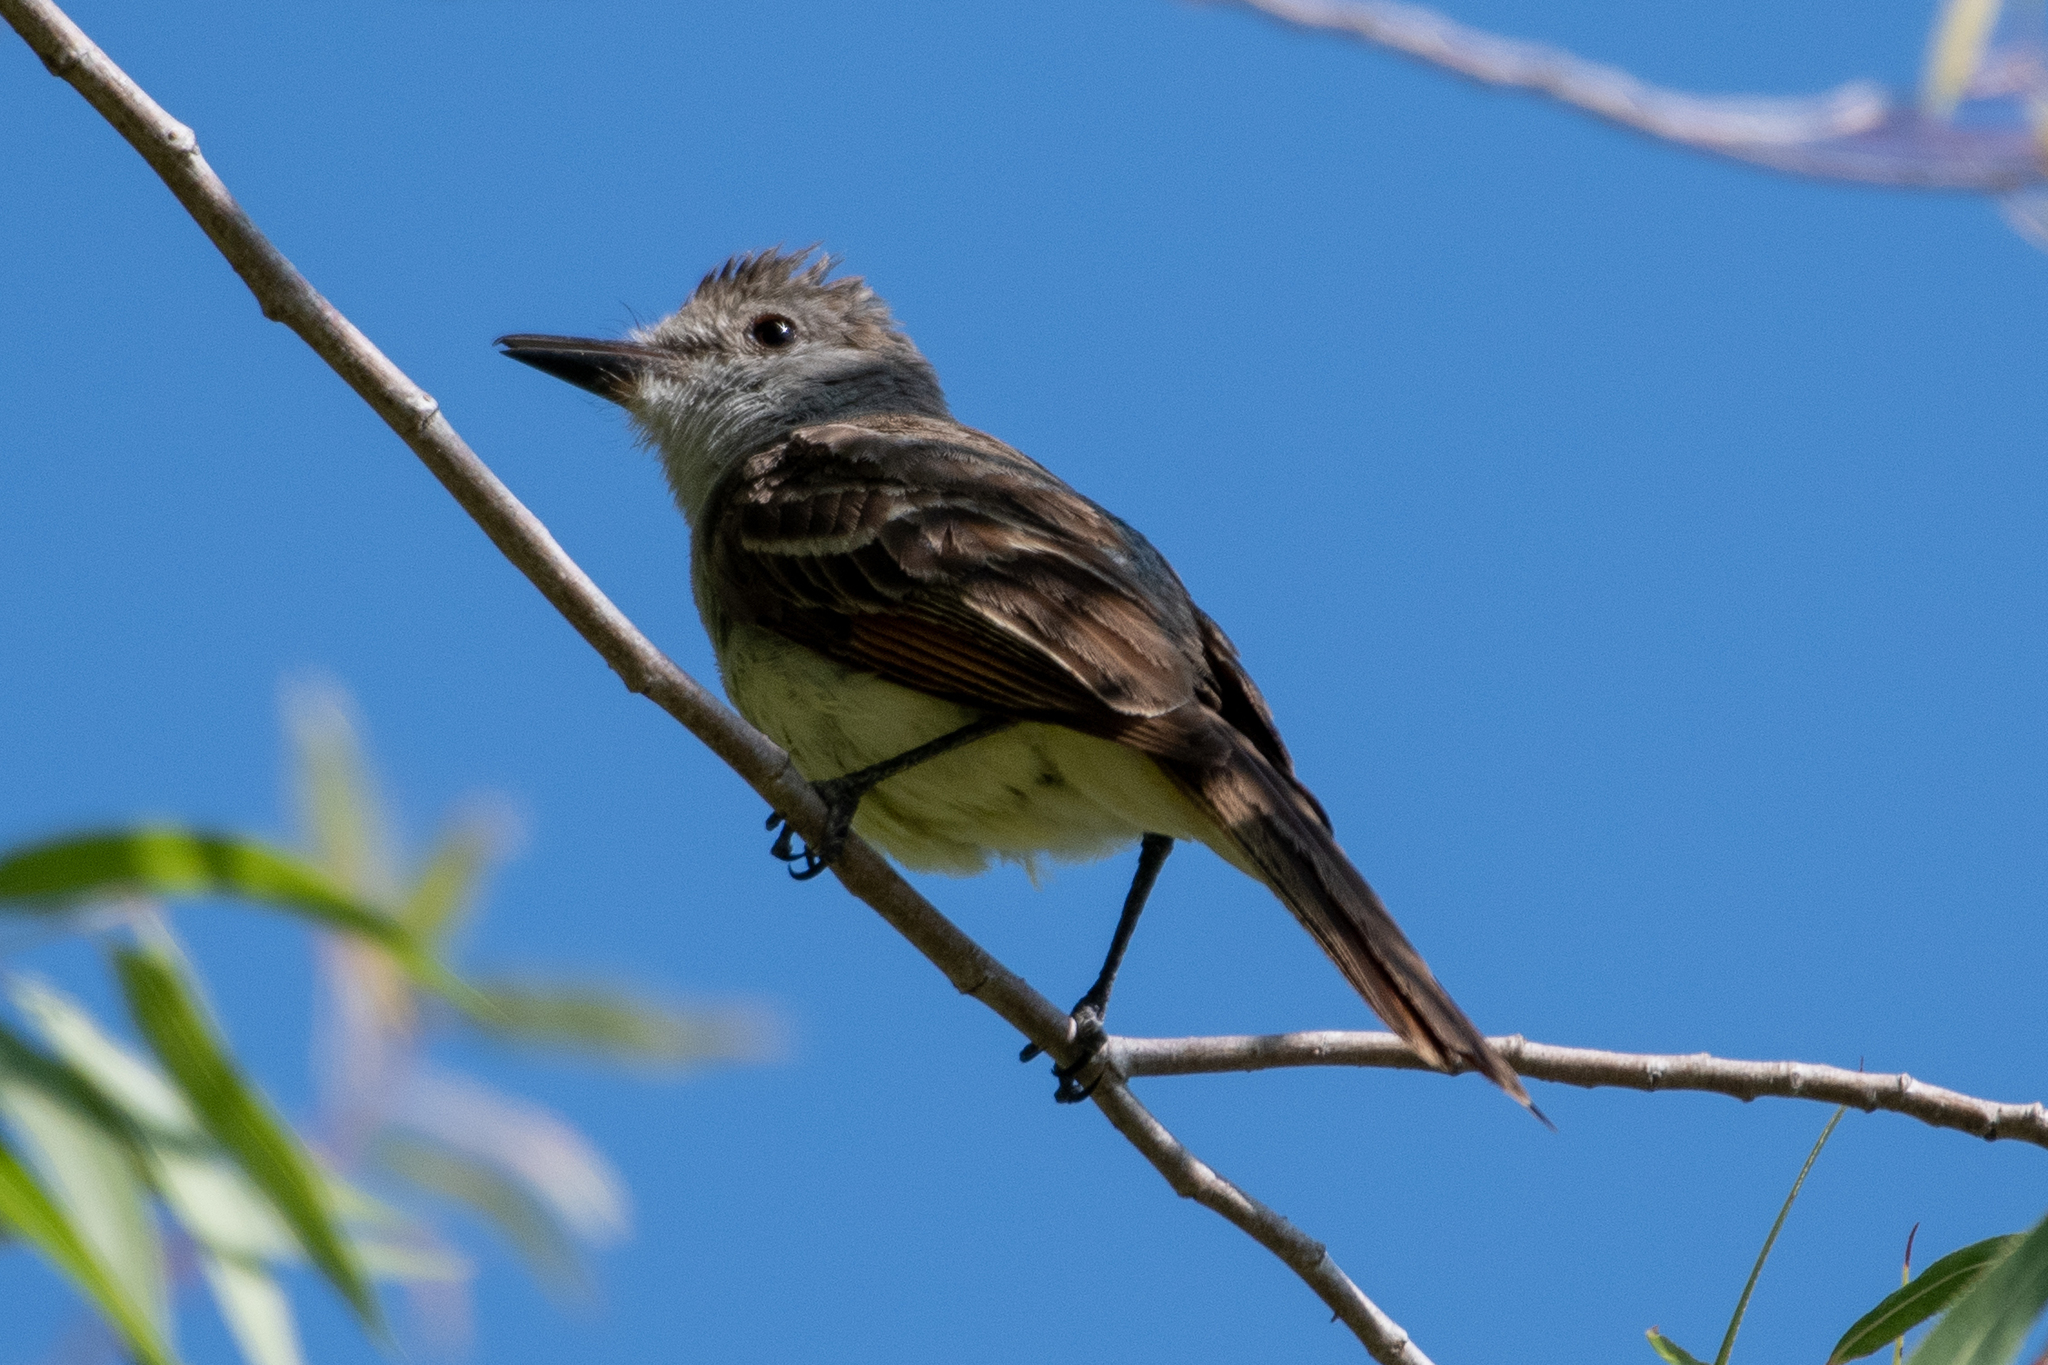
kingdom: Animalia
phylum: Chordata
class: Aves
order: Passeriformes
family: Tyrannidae
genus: Myiarchus
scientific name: Myiarchus cinerascens
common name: Ash-throated flycatcher
